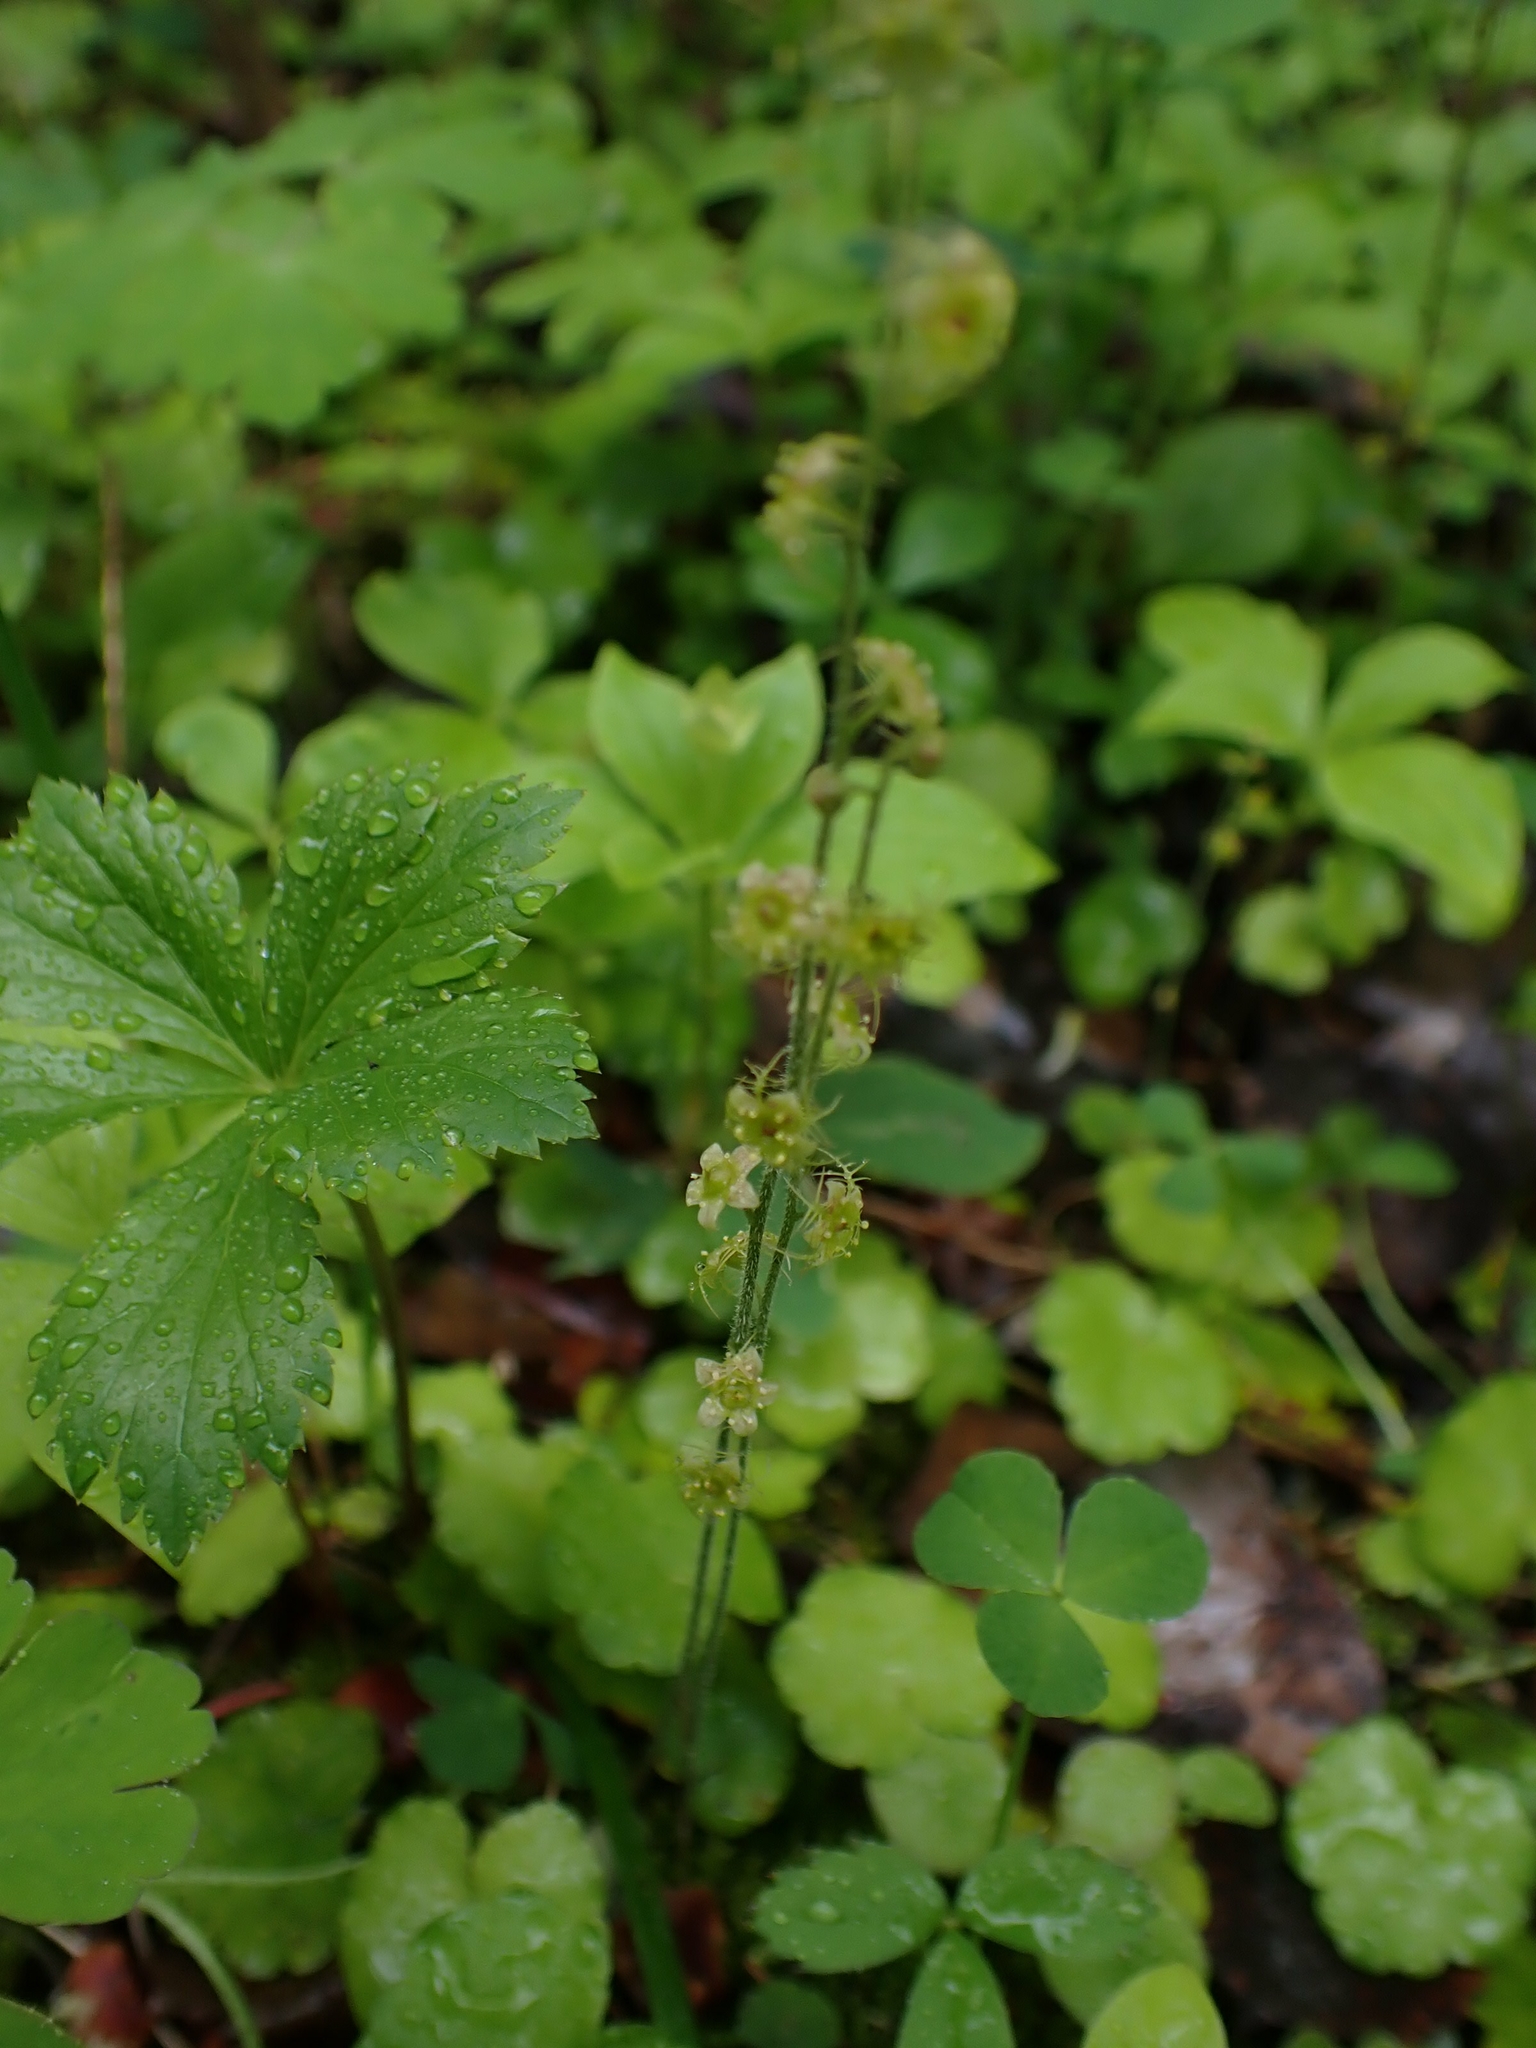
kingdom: Plantae
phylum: Tracheophyta
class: Magnoliopsida
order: Saxifragales
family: Saxifragaceae
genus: Mitella
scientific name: Mitella nuda
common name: Bare-stemmed bishop's-cap
